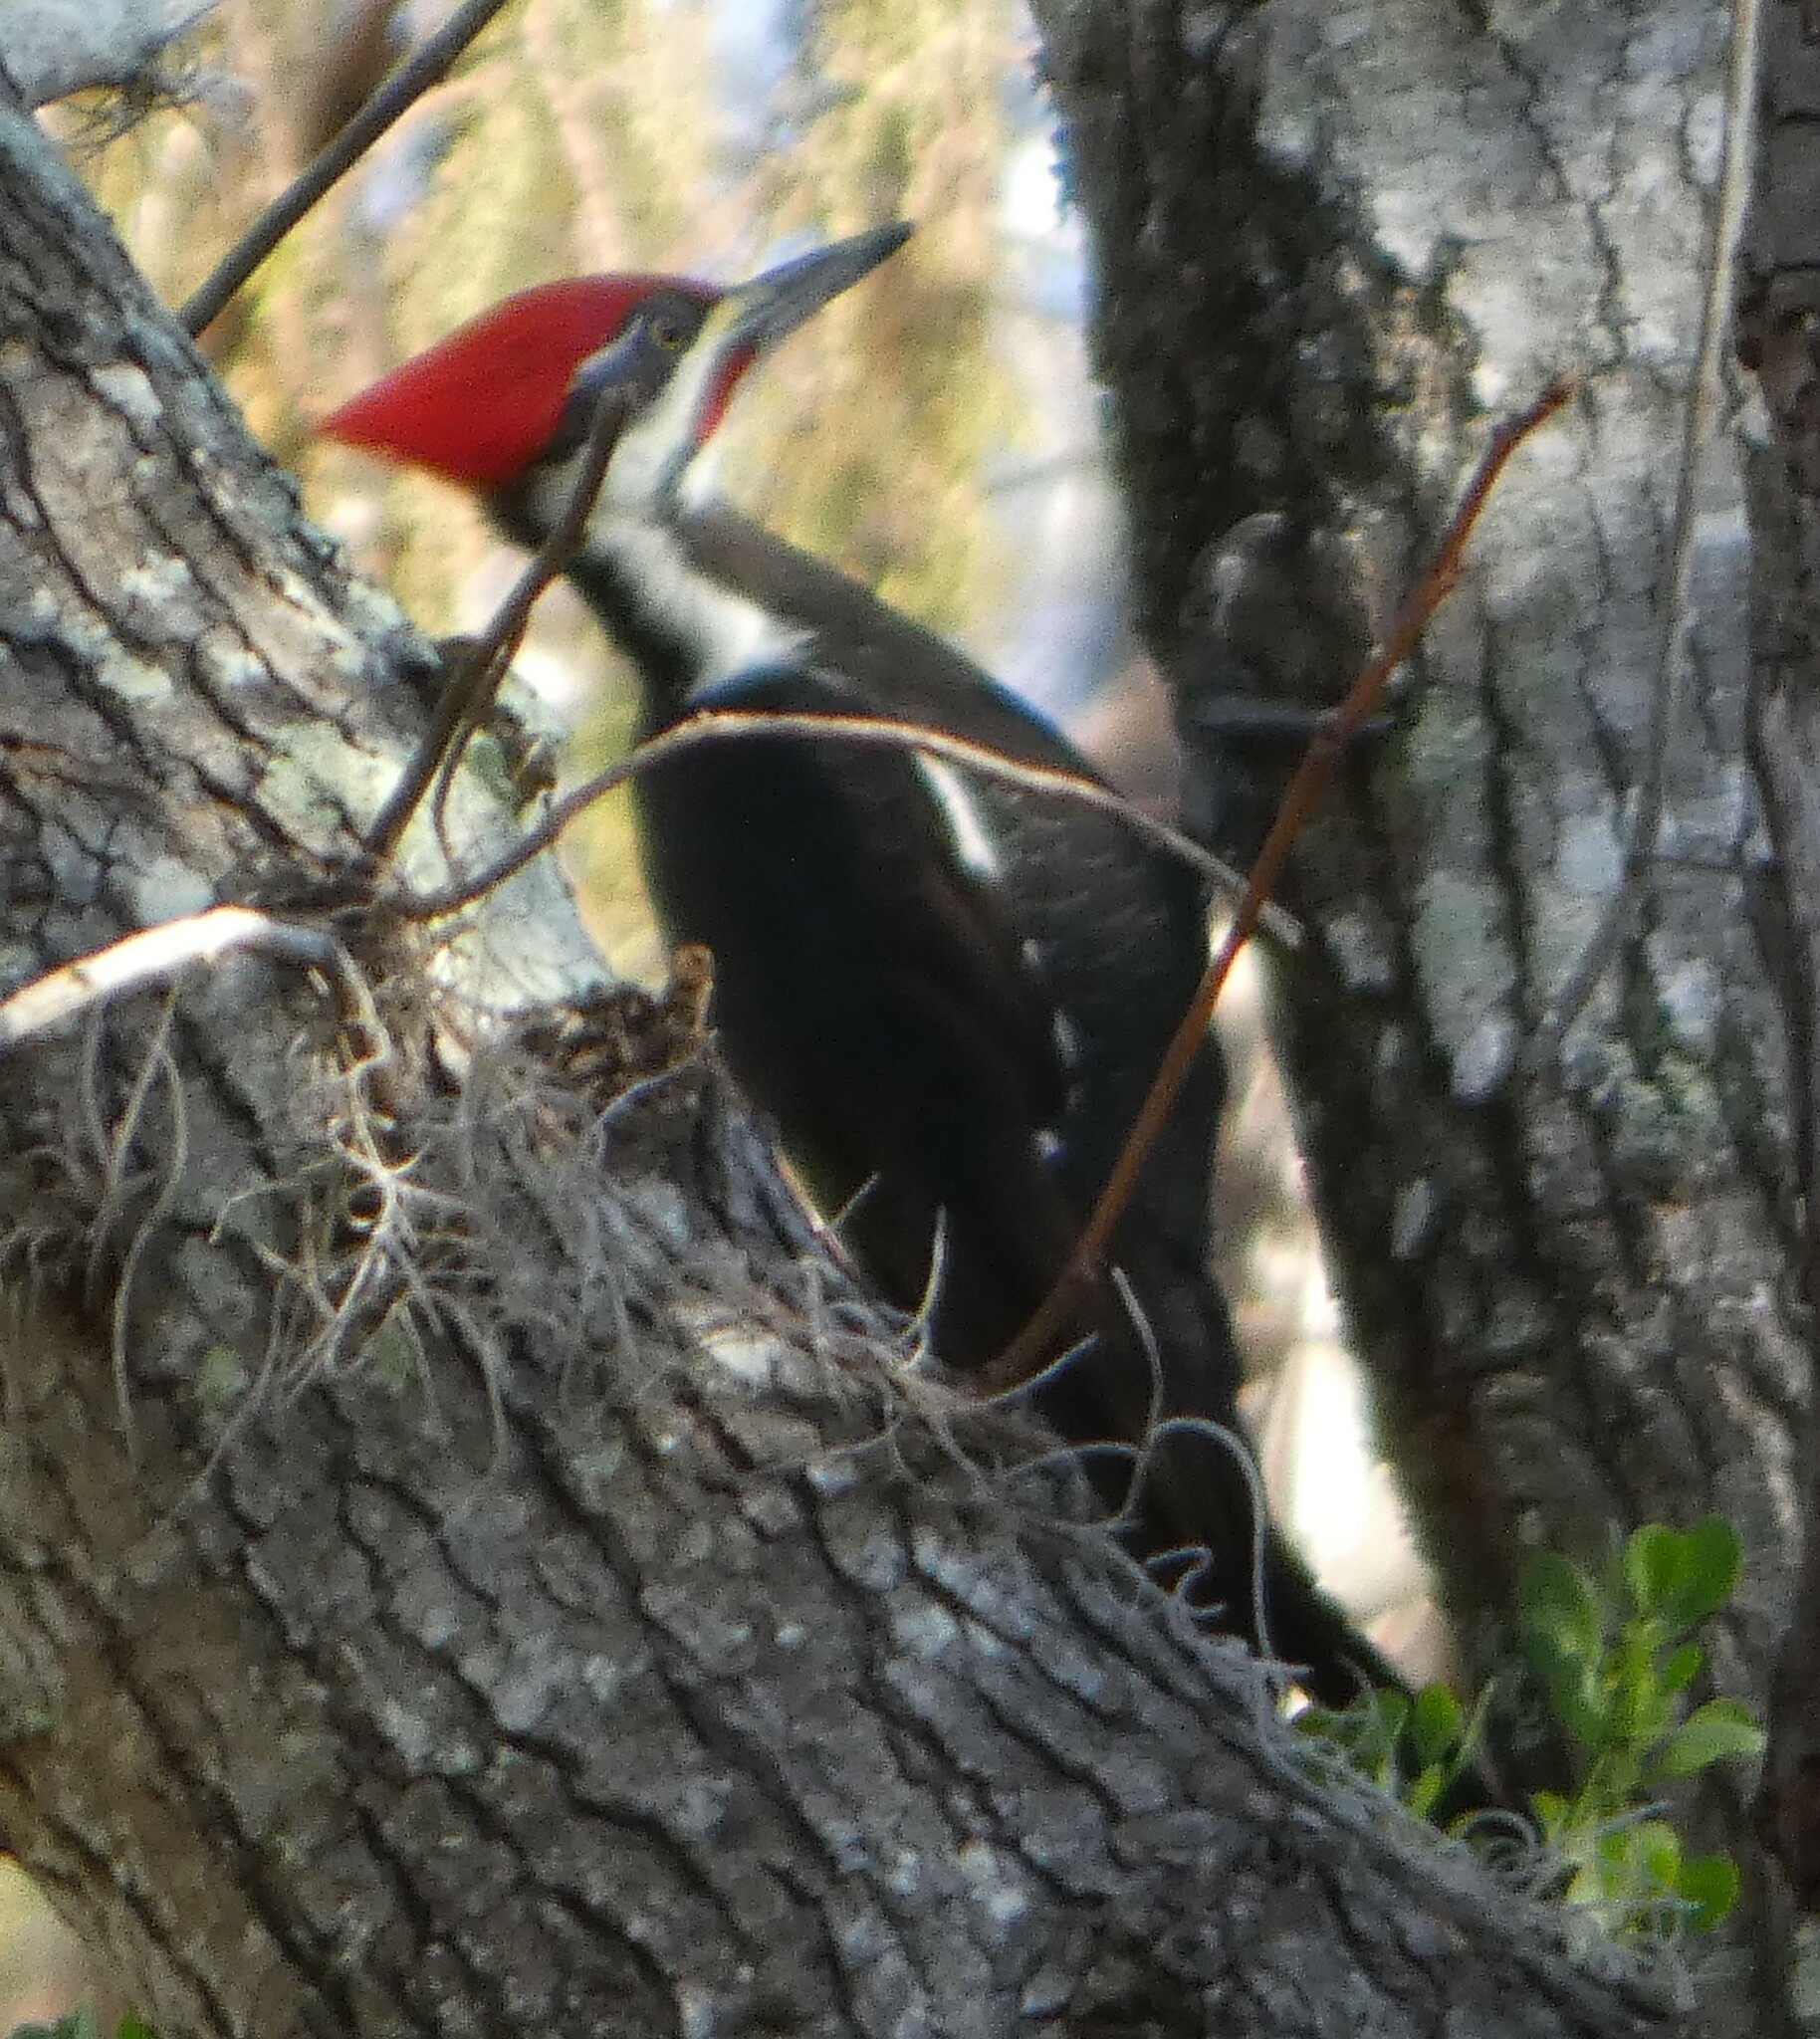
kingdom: Animalia
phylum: Chordata
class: Aves
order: Piciformes
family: Picidae
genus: Dryocopus
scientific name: Dryocopus pileatus
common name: Pileated woodpecker
